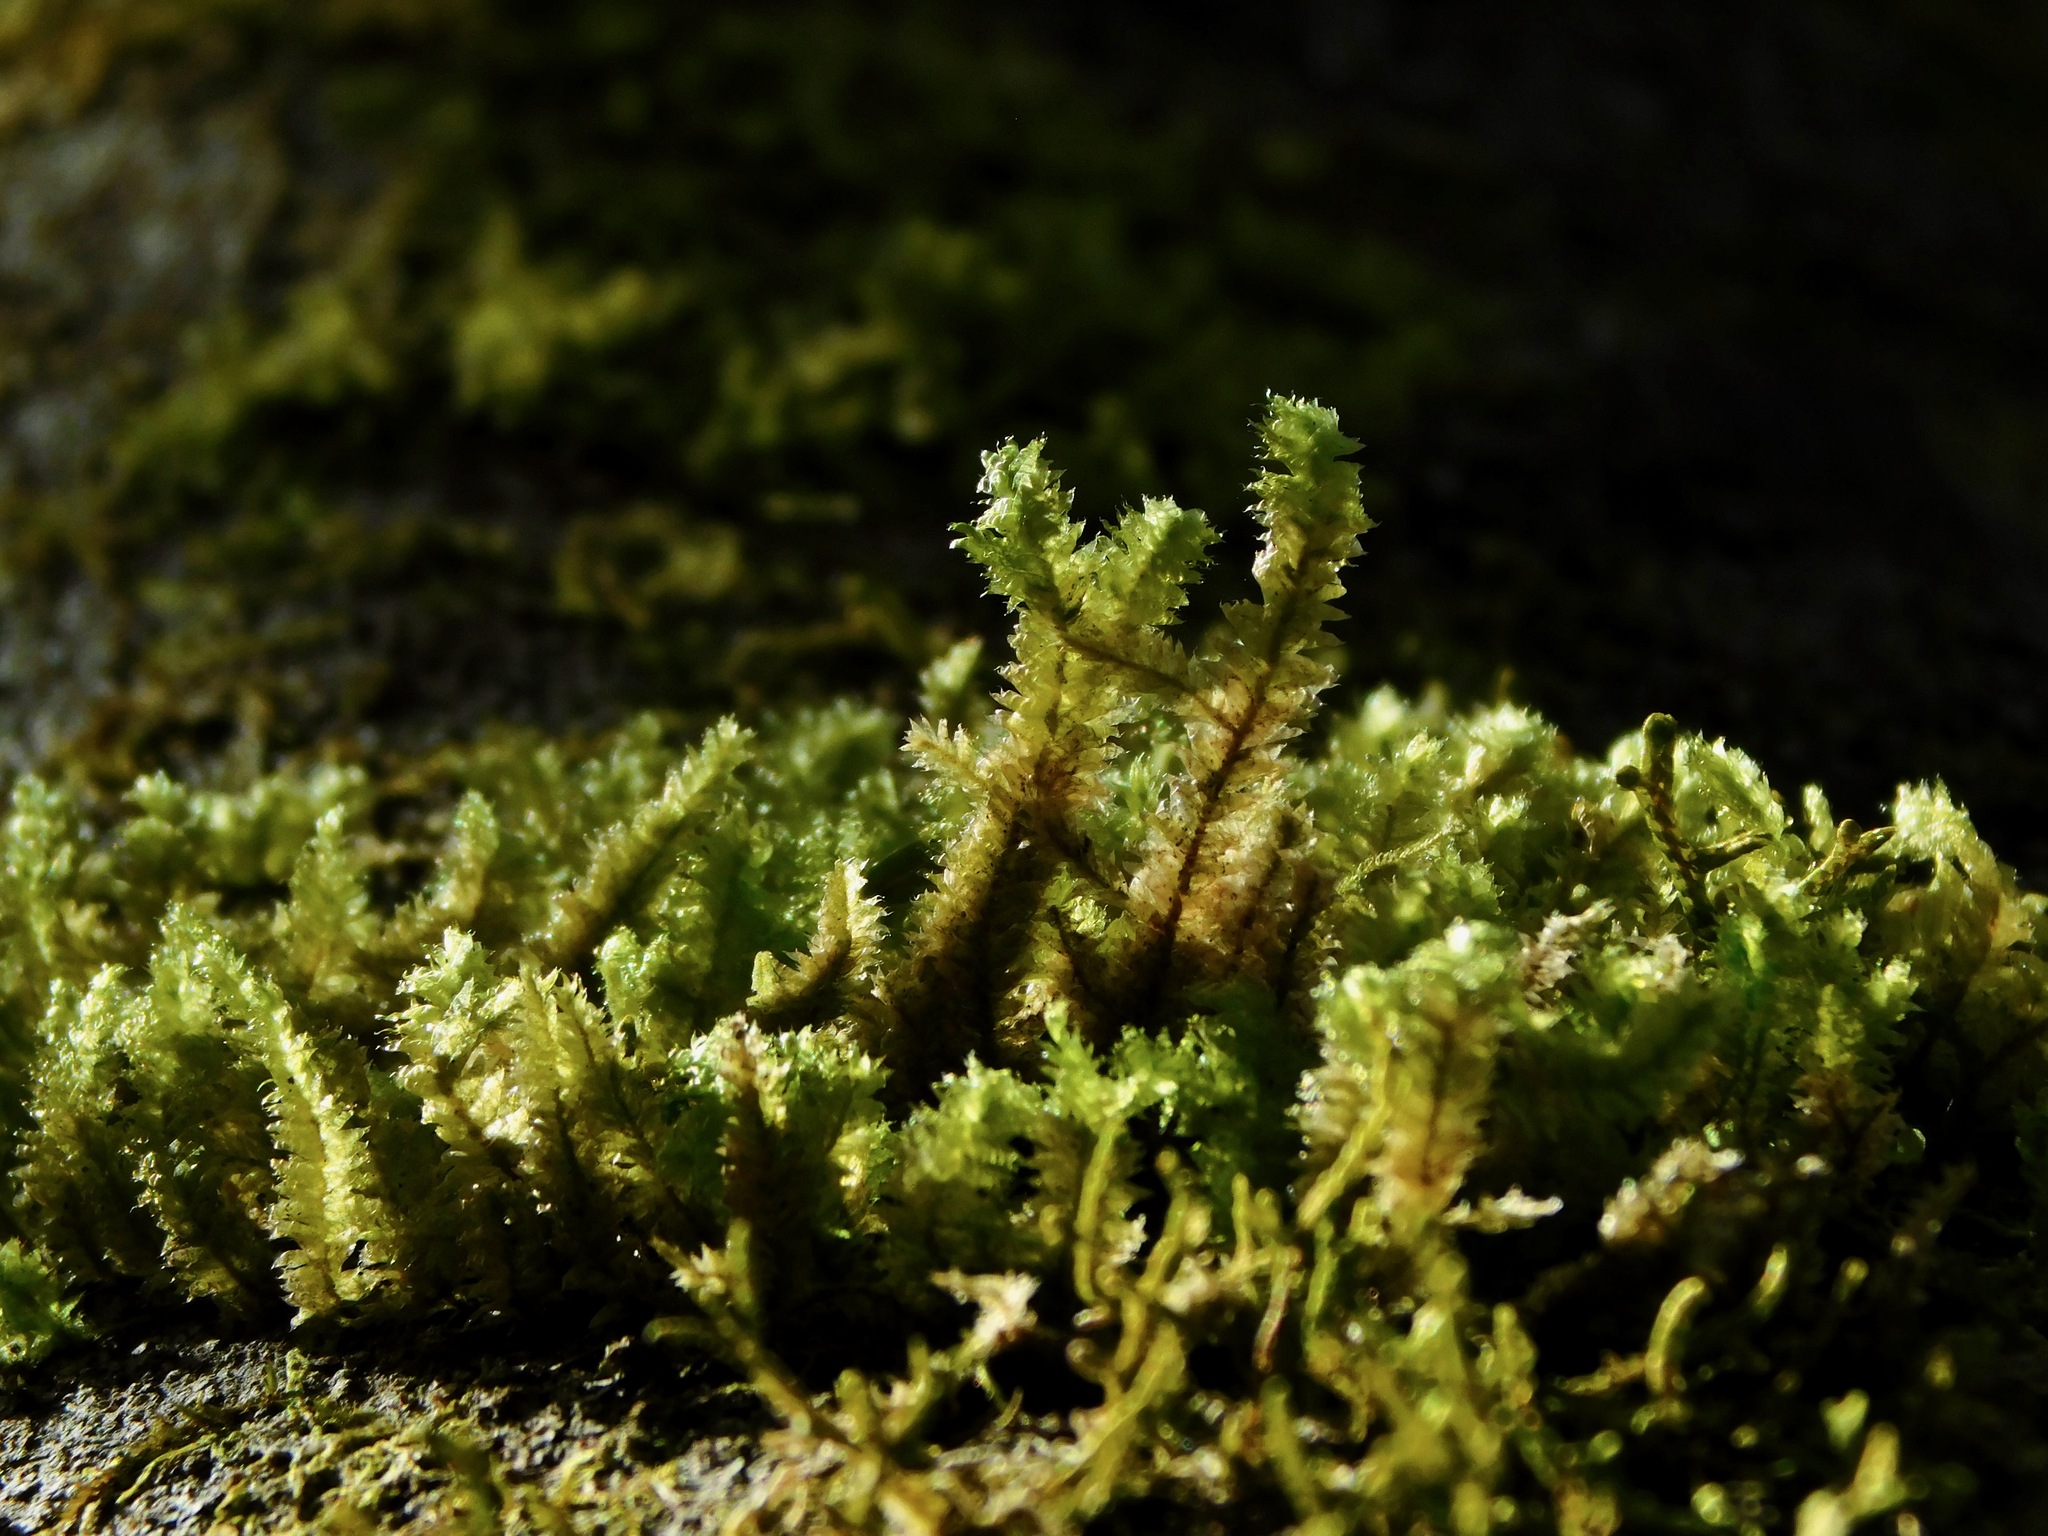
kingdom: Plantae
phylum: Bryophyta
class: Bryopsida
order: Hypnales
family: Neckeraceae
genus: Neckera
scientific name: Neckera pennata
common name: Feathery neckera
